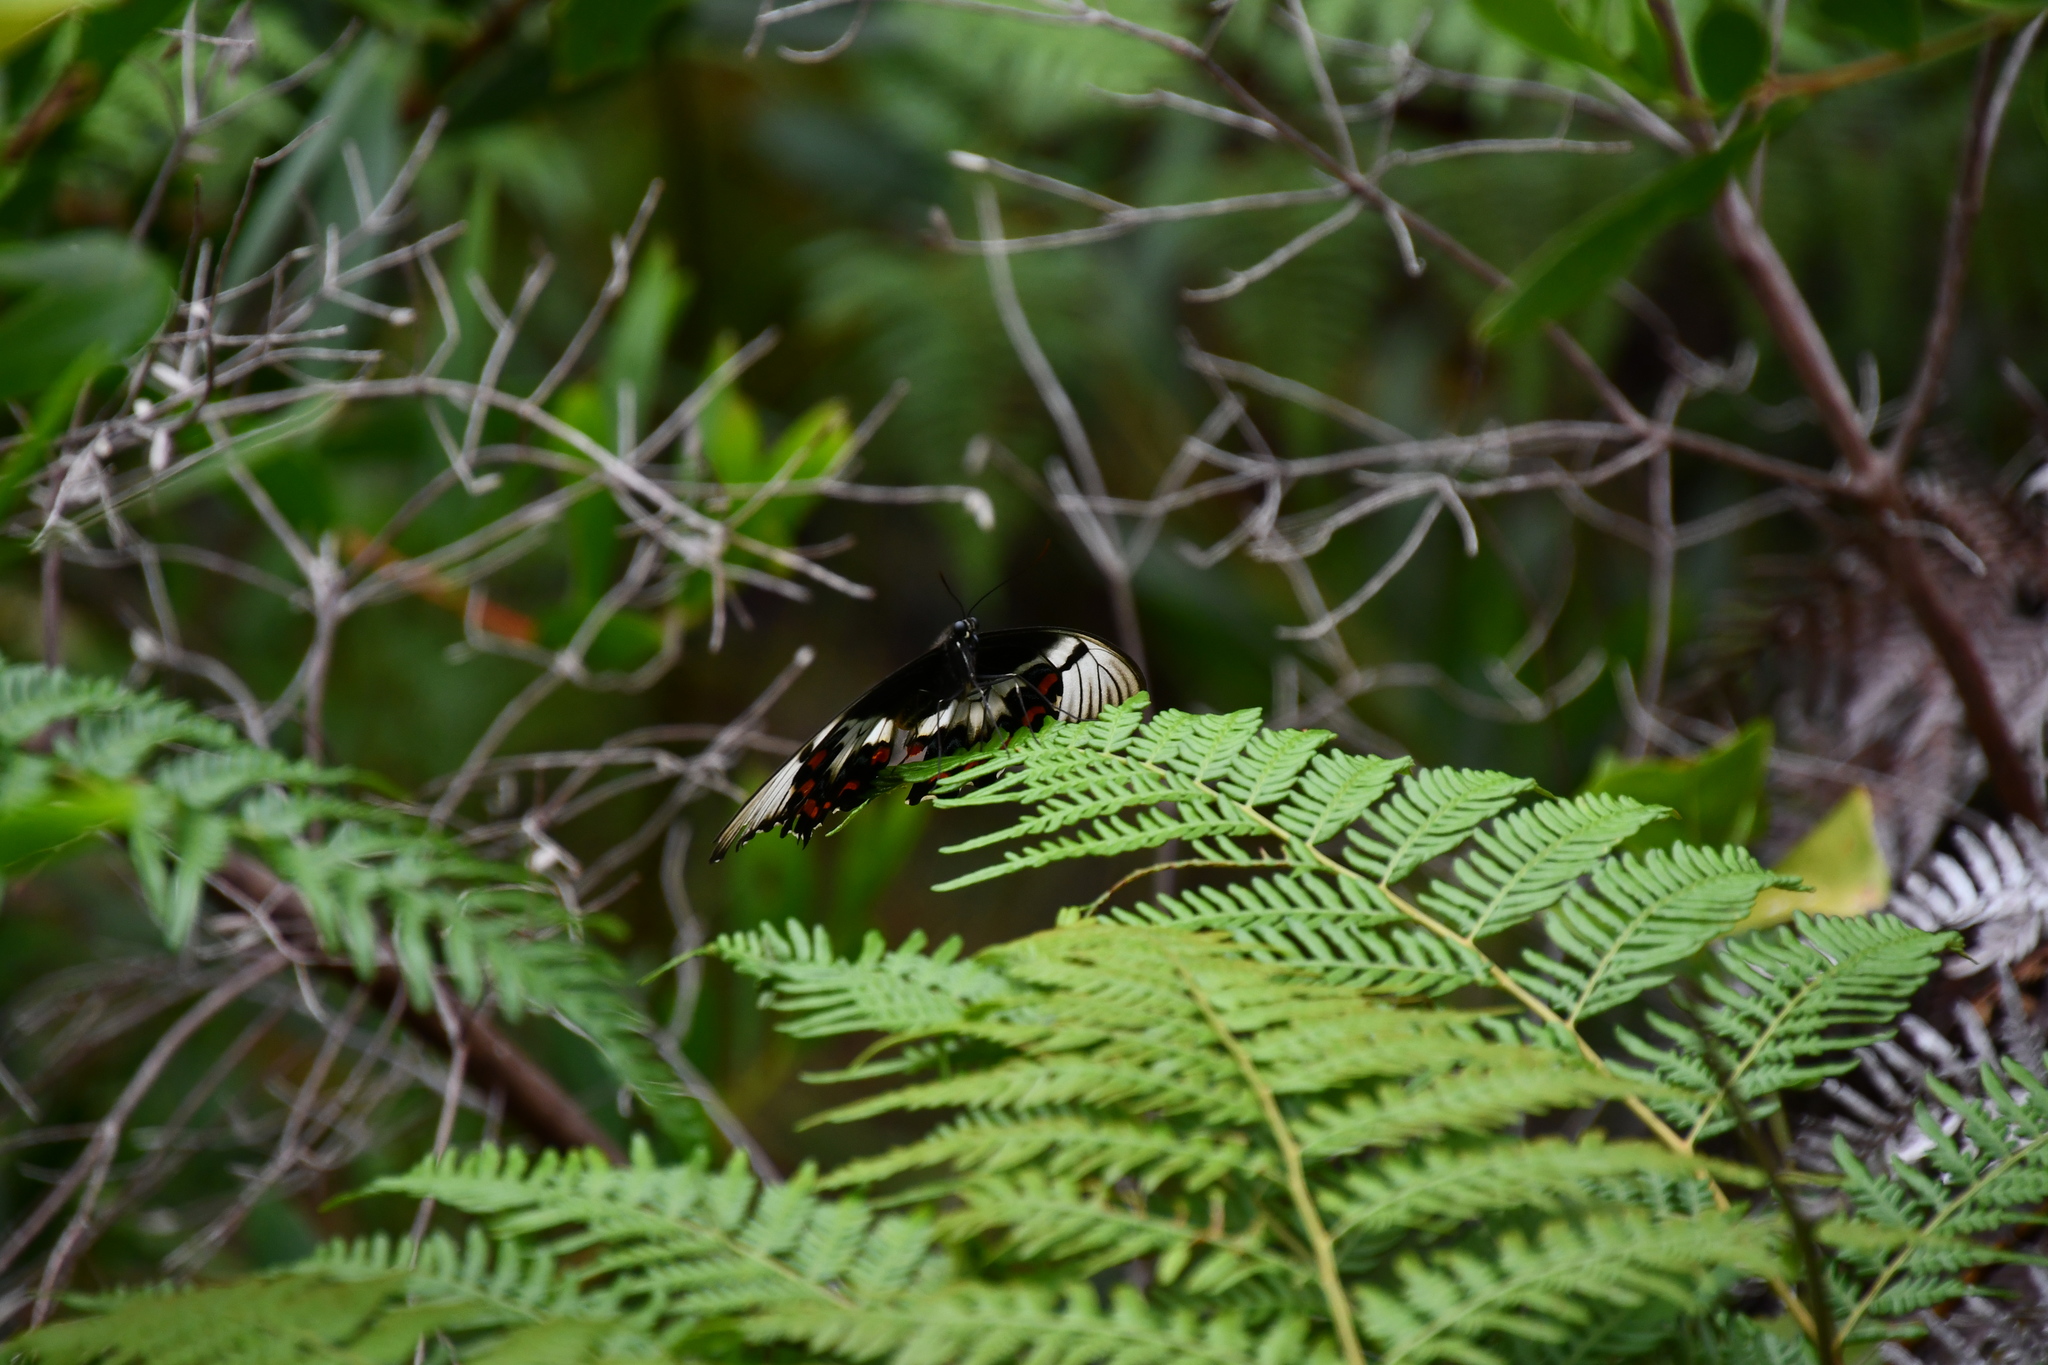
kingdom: Animalia
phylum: Arthropoda
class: Insecta
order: Lepidoptera
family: Papilionidae
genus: Papilio
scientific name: Papilio aegeus
